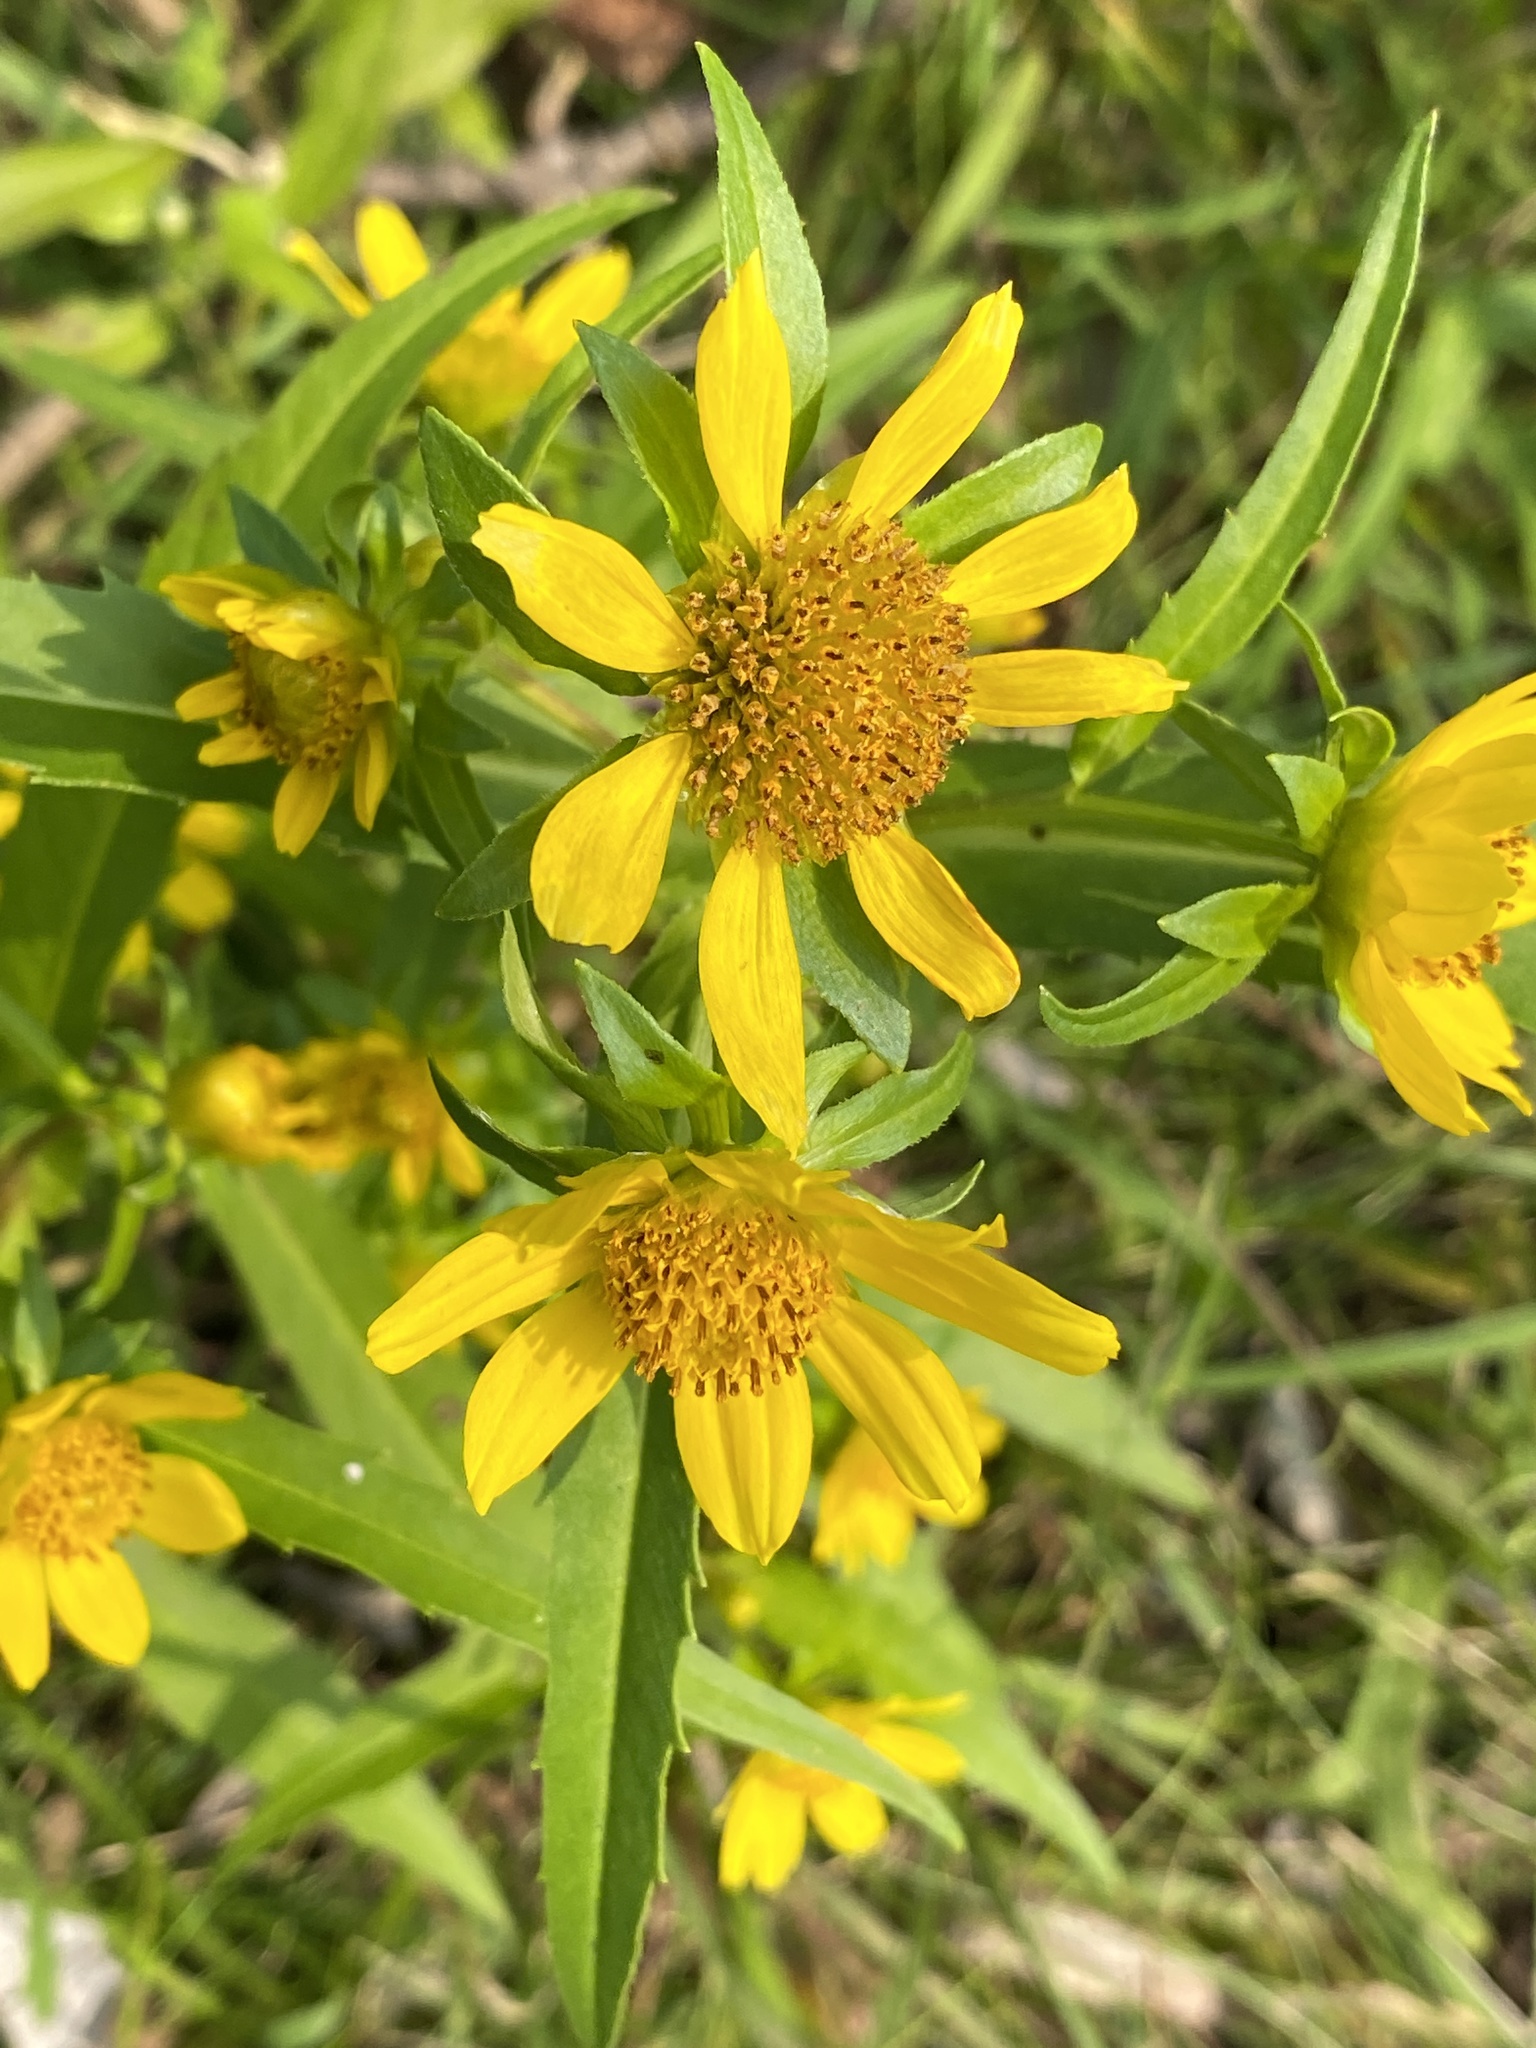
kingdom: Plantae
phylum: Tracheophyta
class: Magnoliopsida
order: Asterales
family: Asteraceae
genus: Bidens
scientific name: Bidens cernua
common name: Nodding bur-marigold
